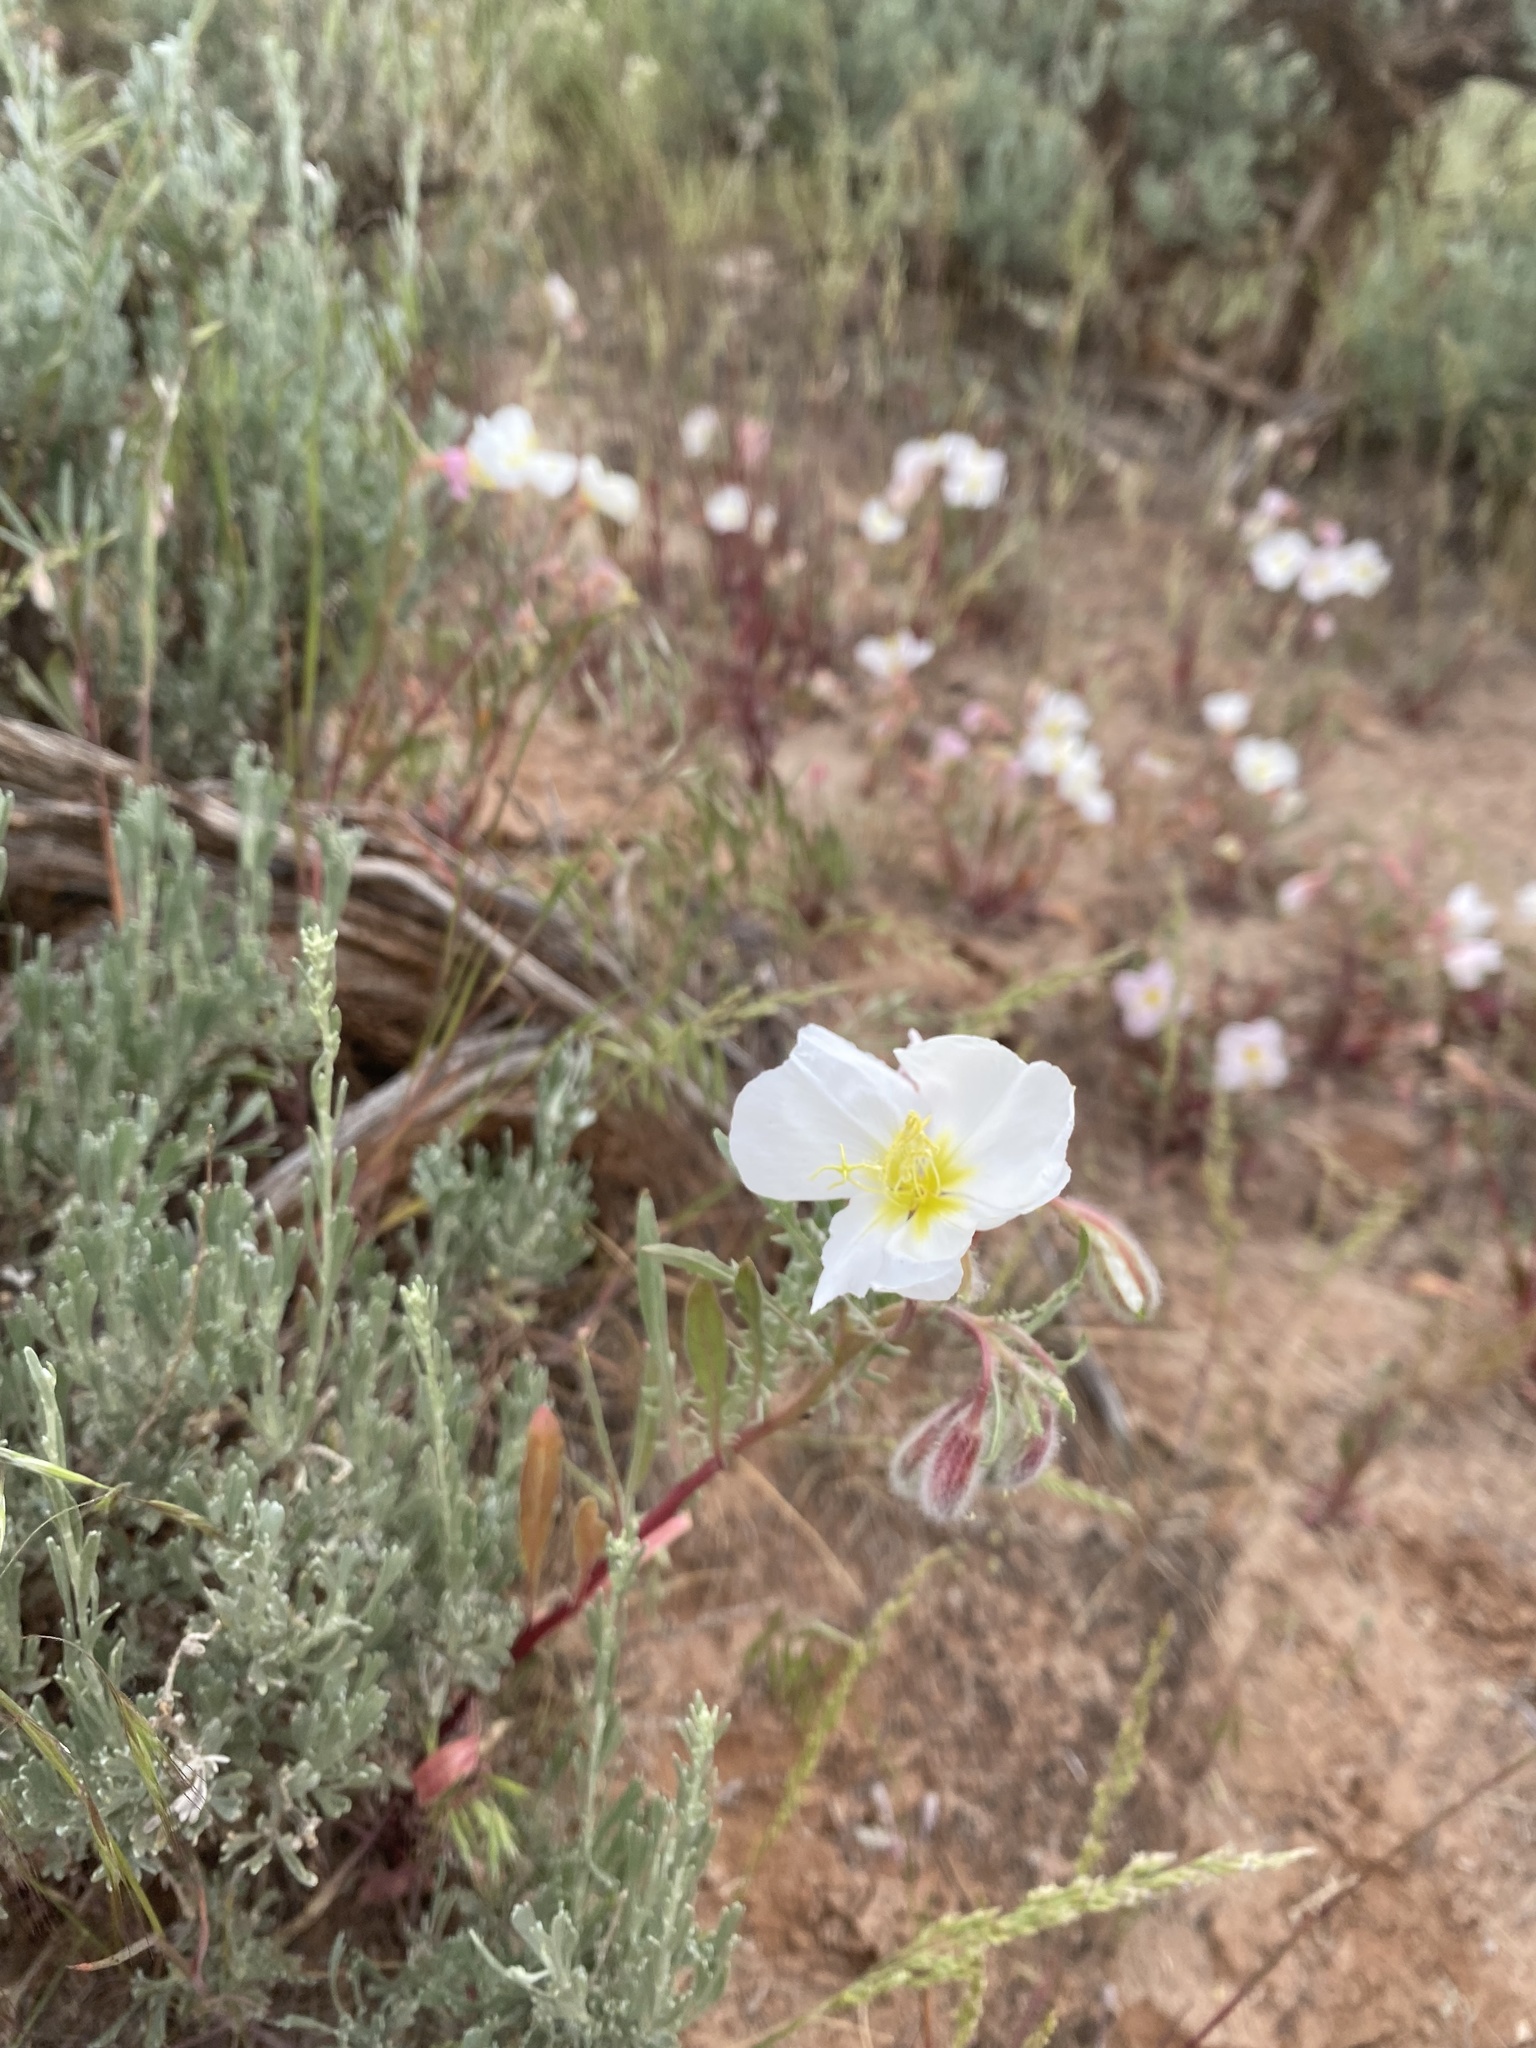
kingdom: Plantae
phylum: Tracheophyta
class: Magnoliopsida
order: Myrtales
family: Onagraceae
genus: Oenothera
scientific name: Oenothera pallida
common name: Pale evening-primrose
